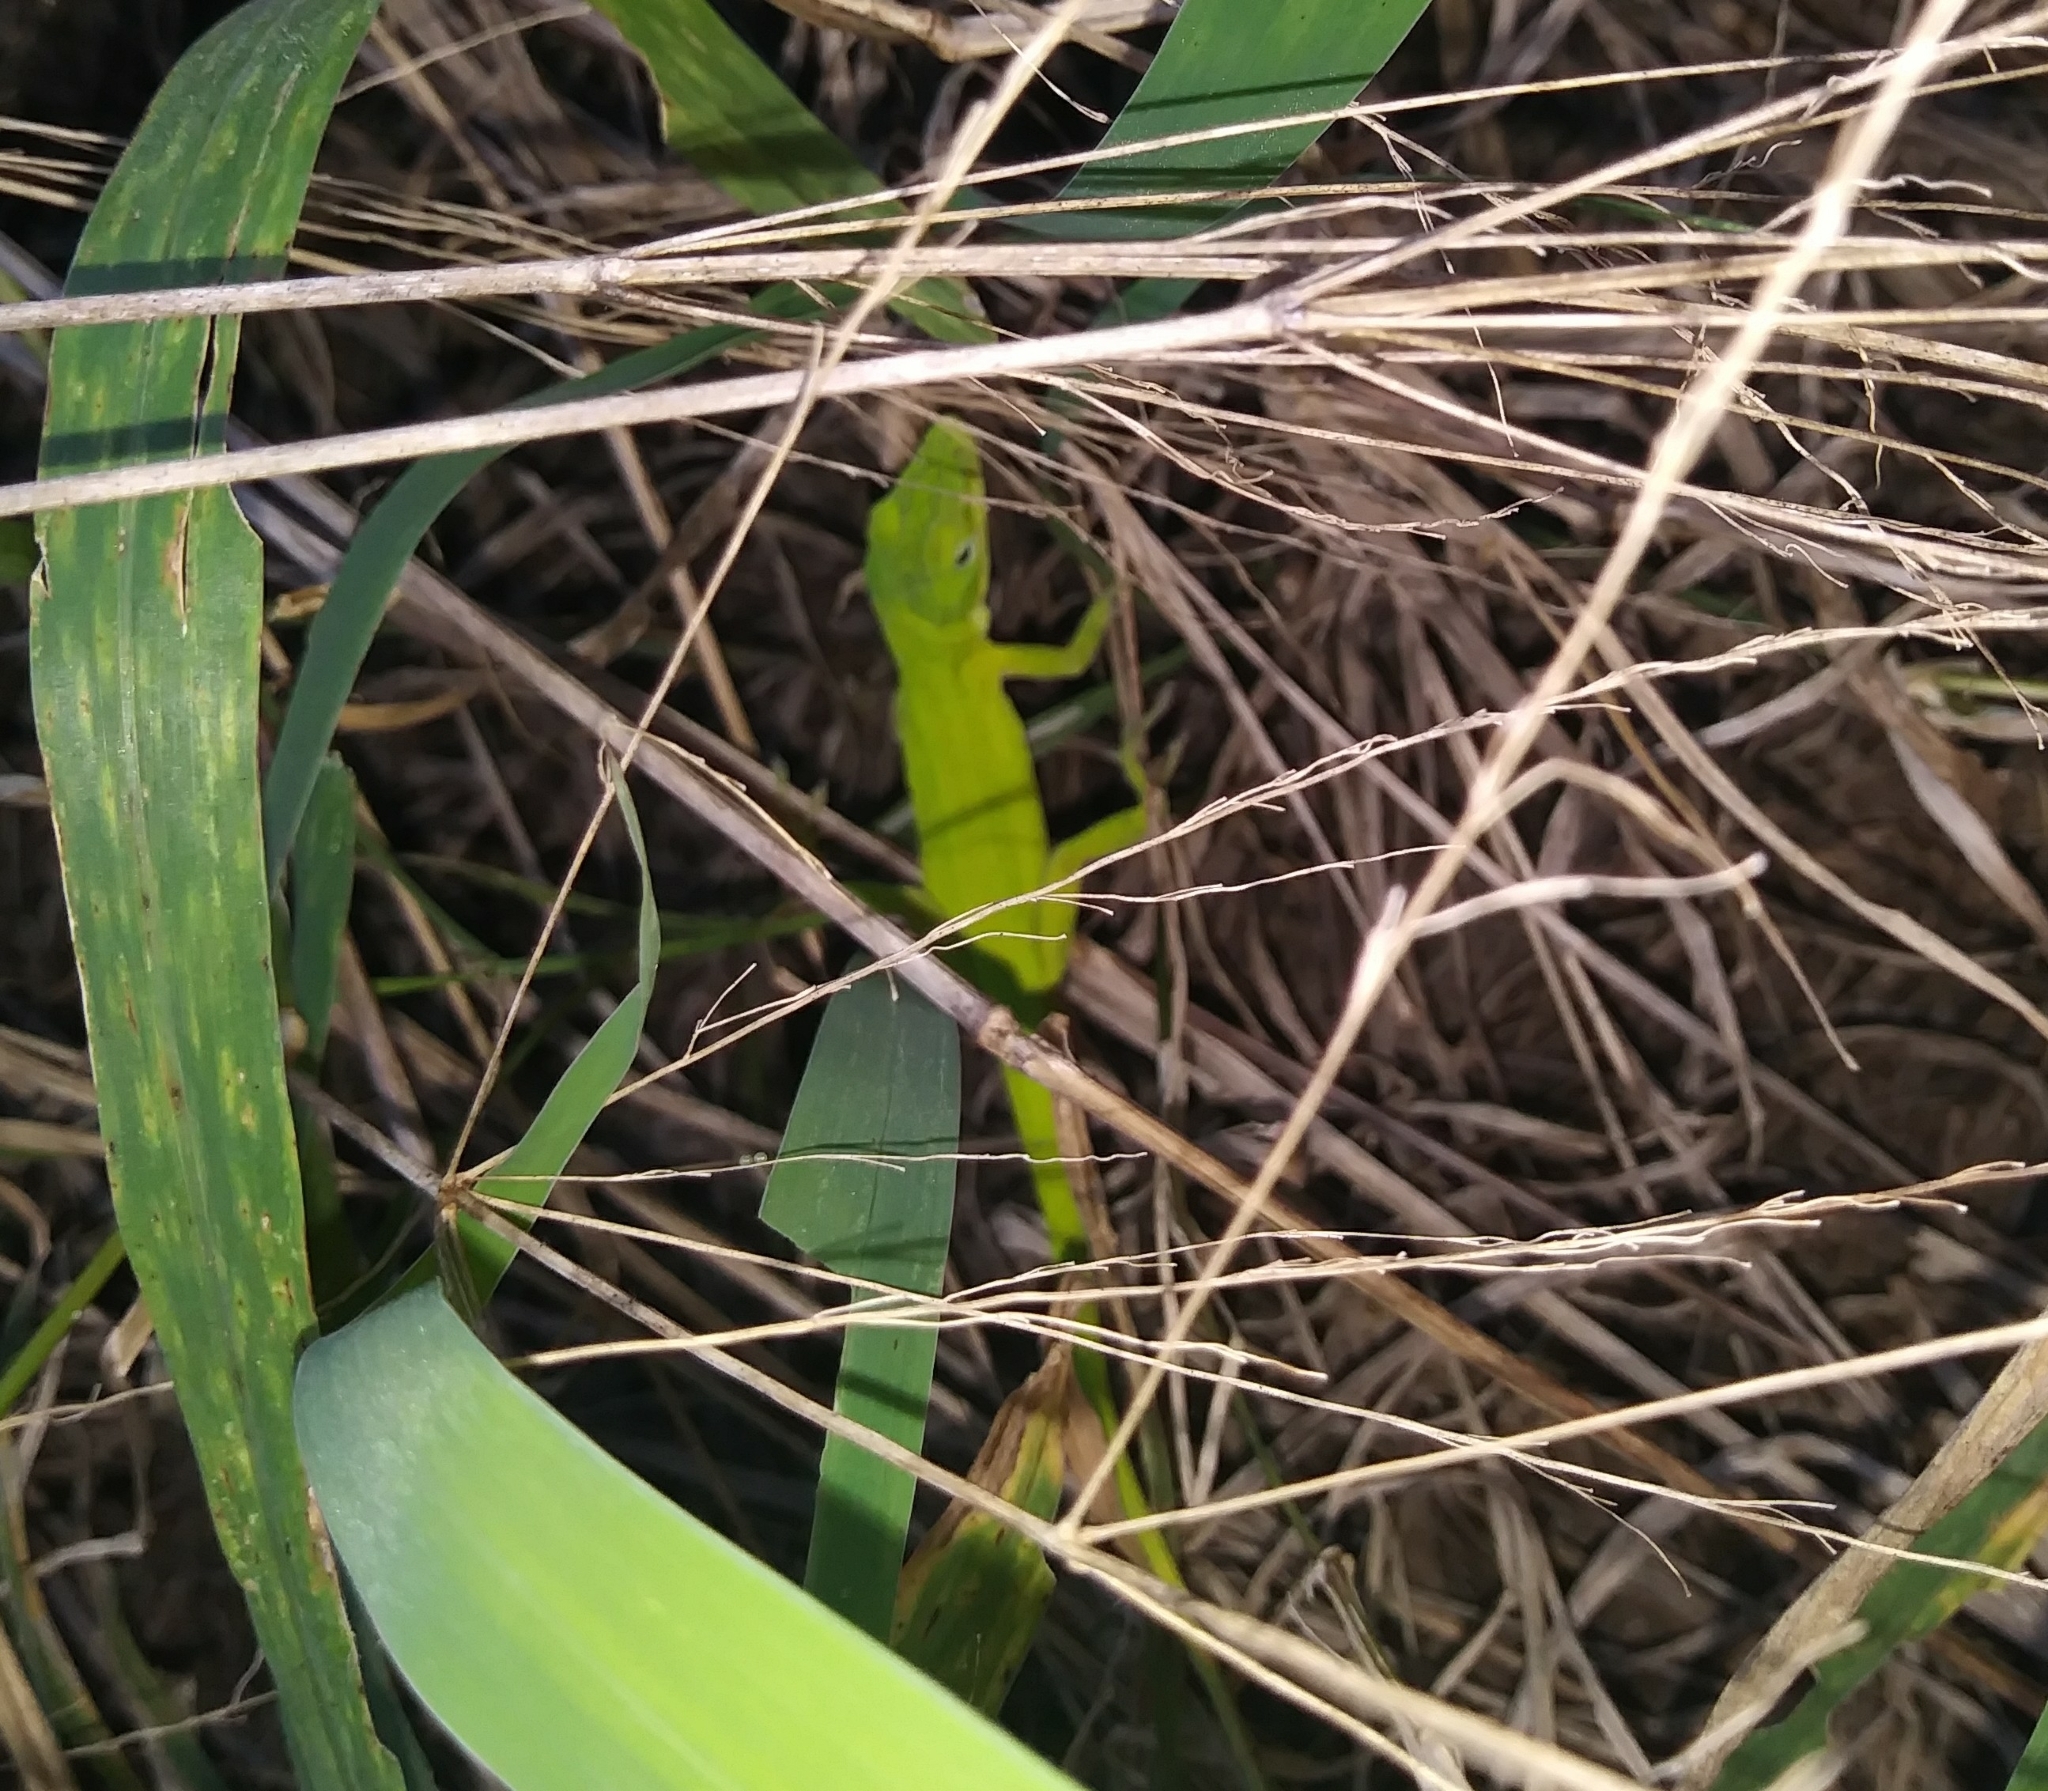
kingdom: Animalia
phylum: Chordata
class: Squamata
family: Dactyloidae
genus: Anolis
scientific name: Anolis carolinensis
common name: Green anole
